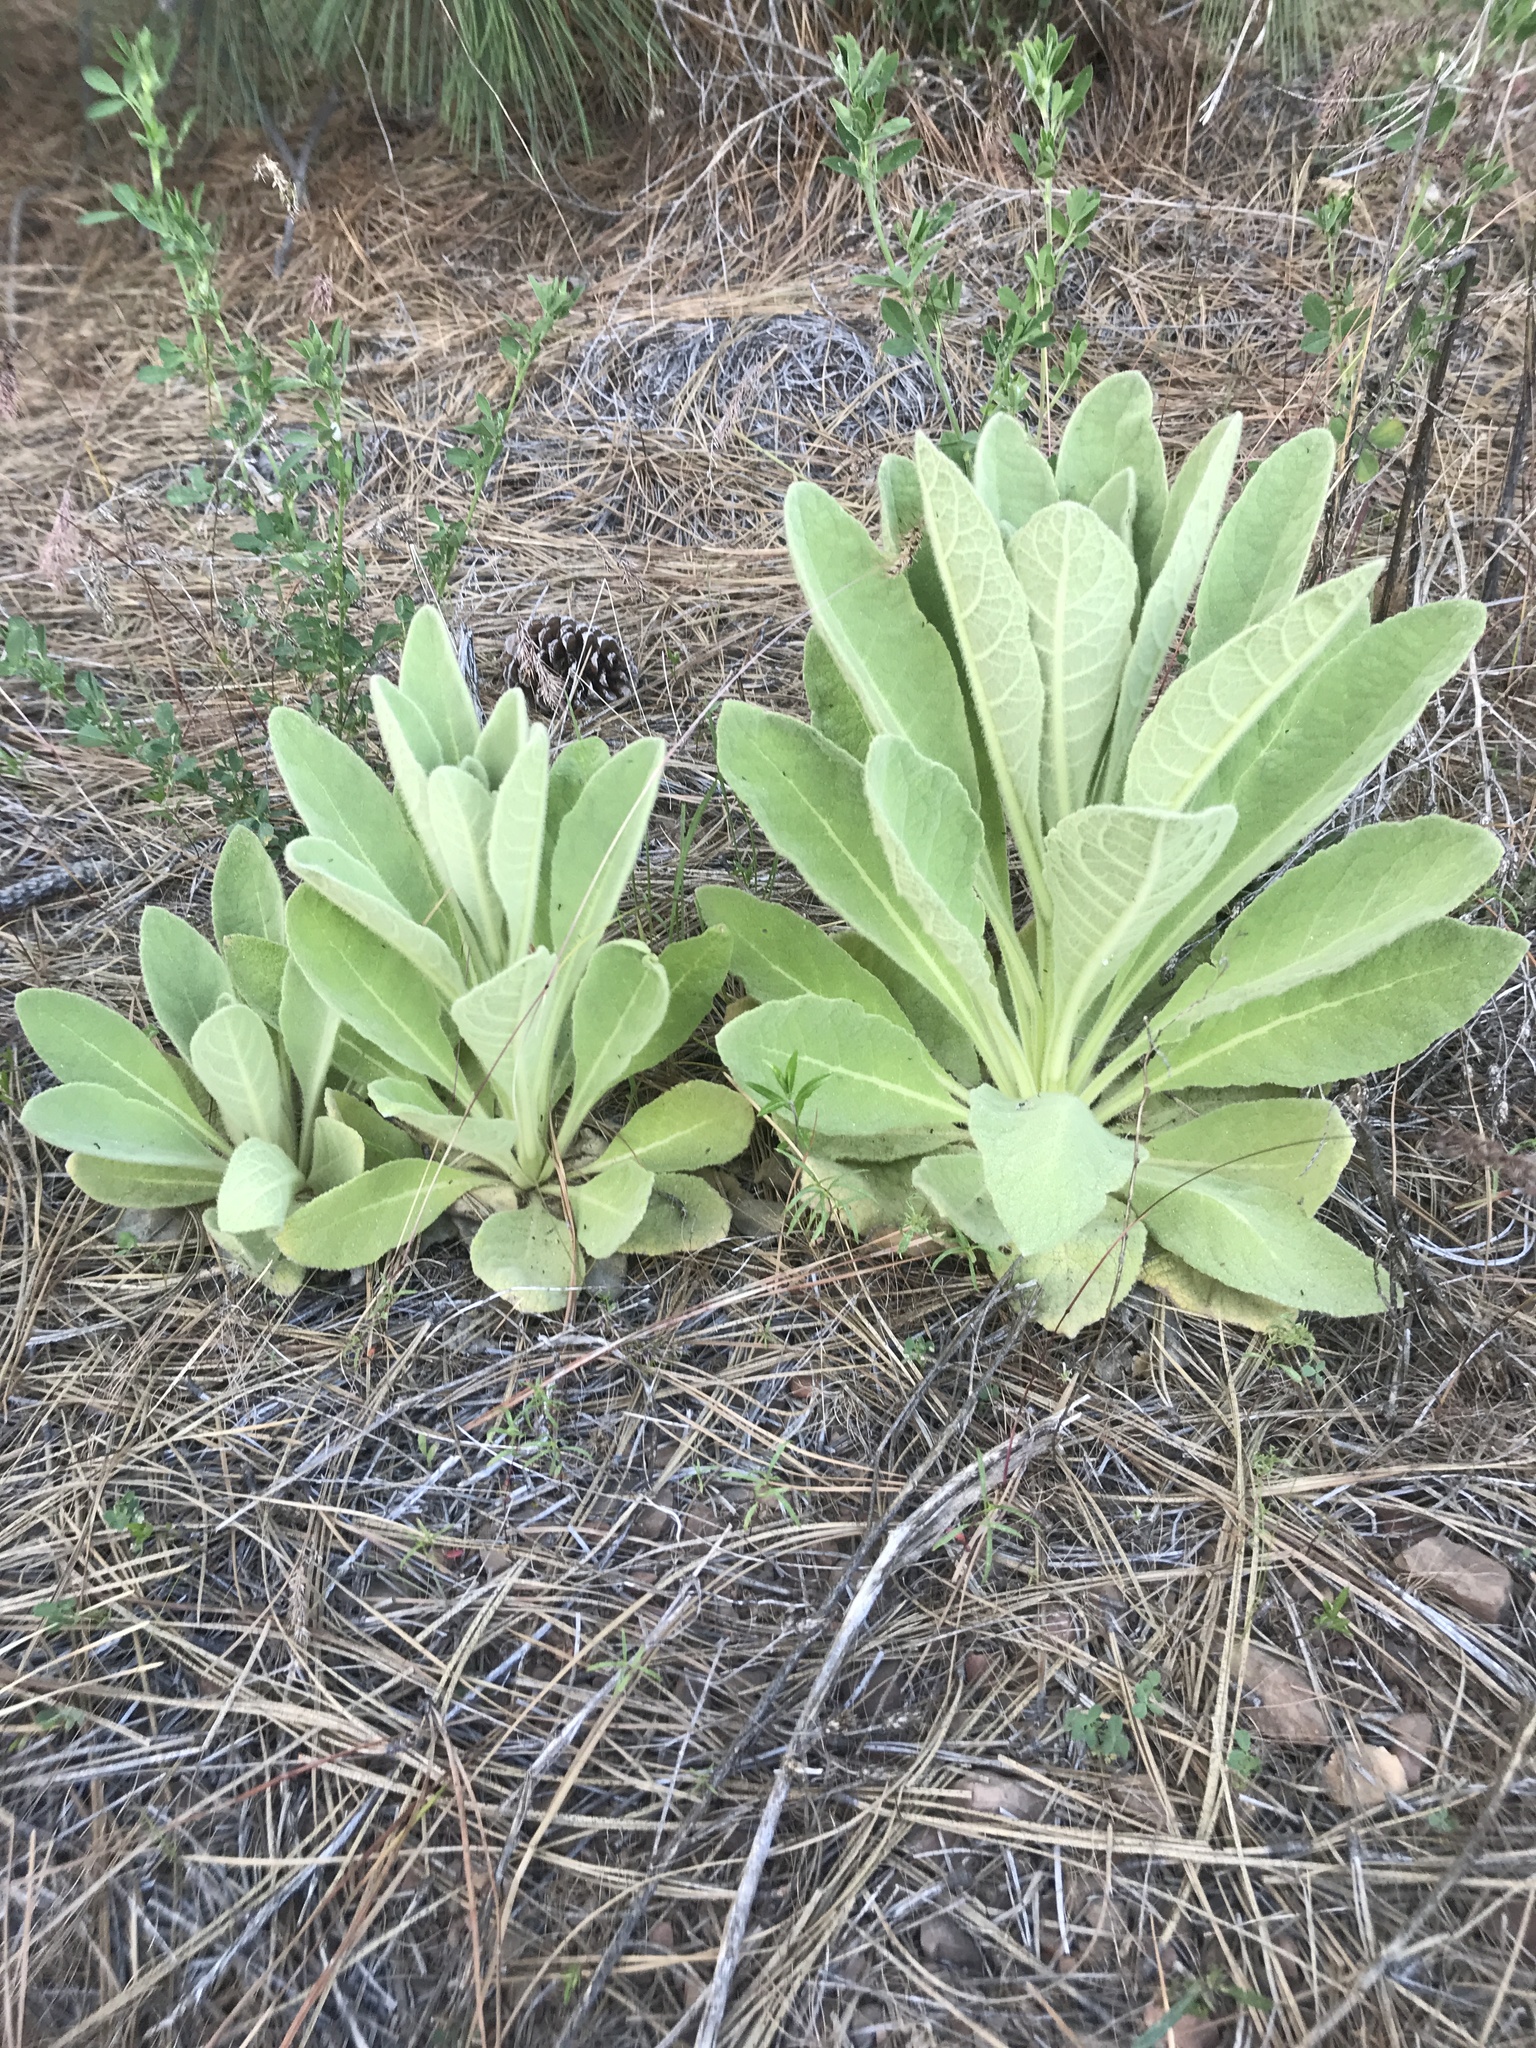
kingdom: Plantae
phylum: Tracheophyta
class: Magnoliopsida
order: Lamiales
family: Scrophulariaceae
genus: Verbascum
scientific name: Verbascum thapsus
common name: Common mullein
